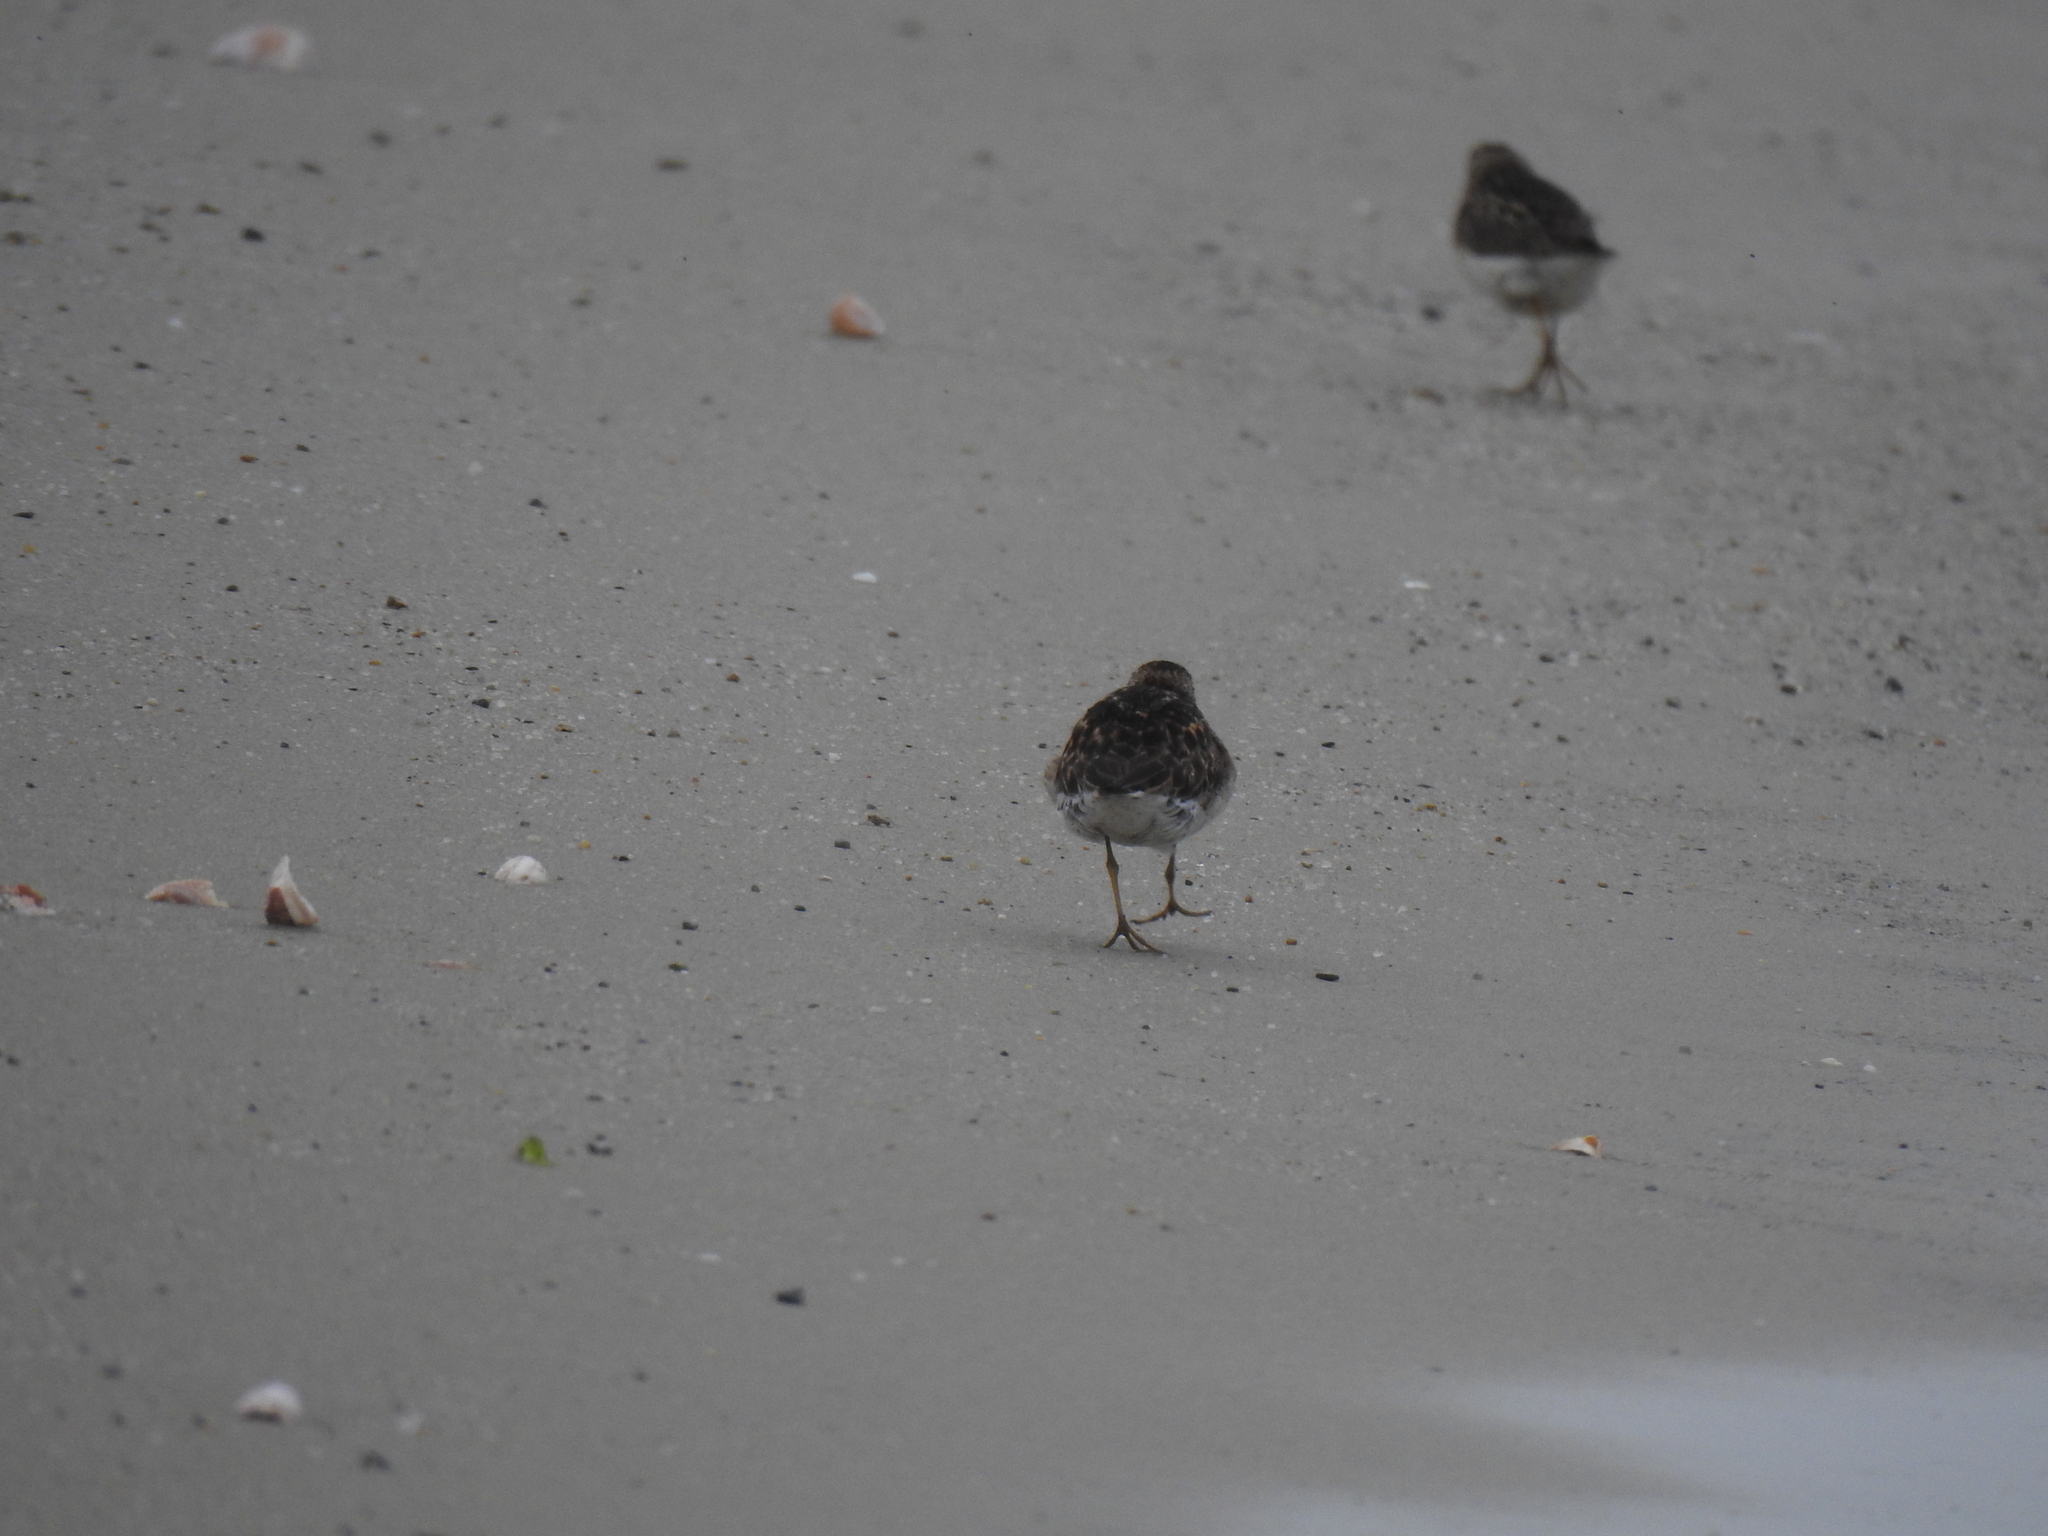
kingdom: Animalia
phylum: Chordata
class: Aves
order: Charadriiformes
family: Scolopacidae
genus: Calidris
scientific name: Calidris minutilla
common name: Least sandpiper
